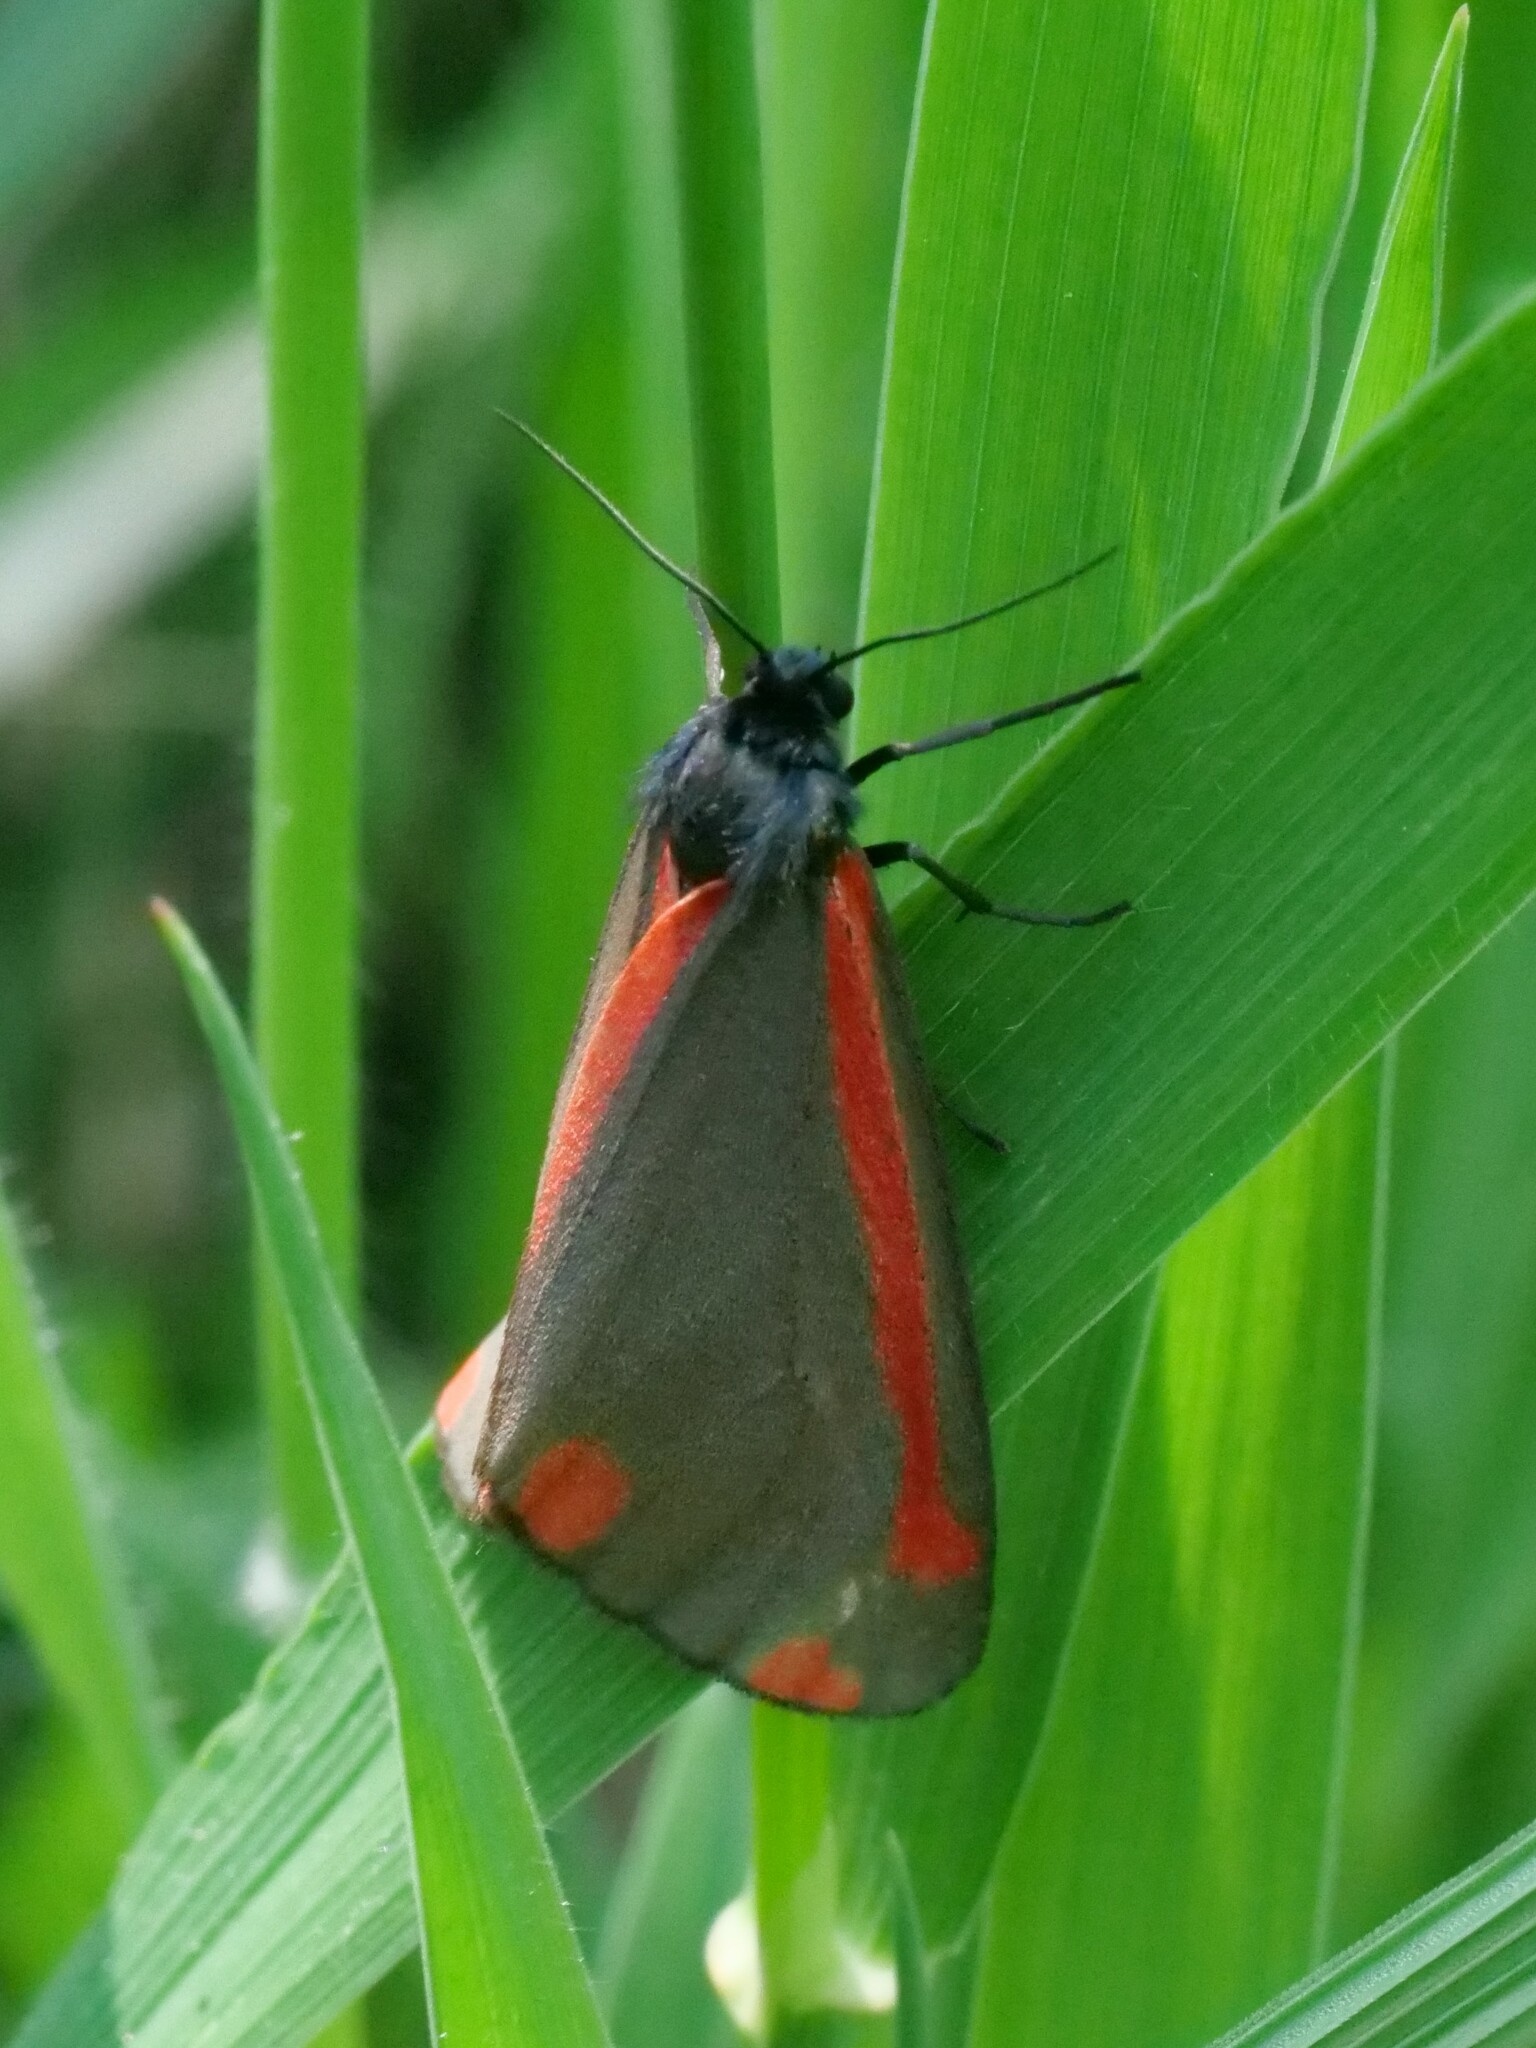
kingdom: Animalia
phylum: Arthropoda
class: Insecta
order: Lepidoptera
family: Erebidae
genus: Tyria
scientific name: Tyria jacobaeae
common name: Cinnabar
